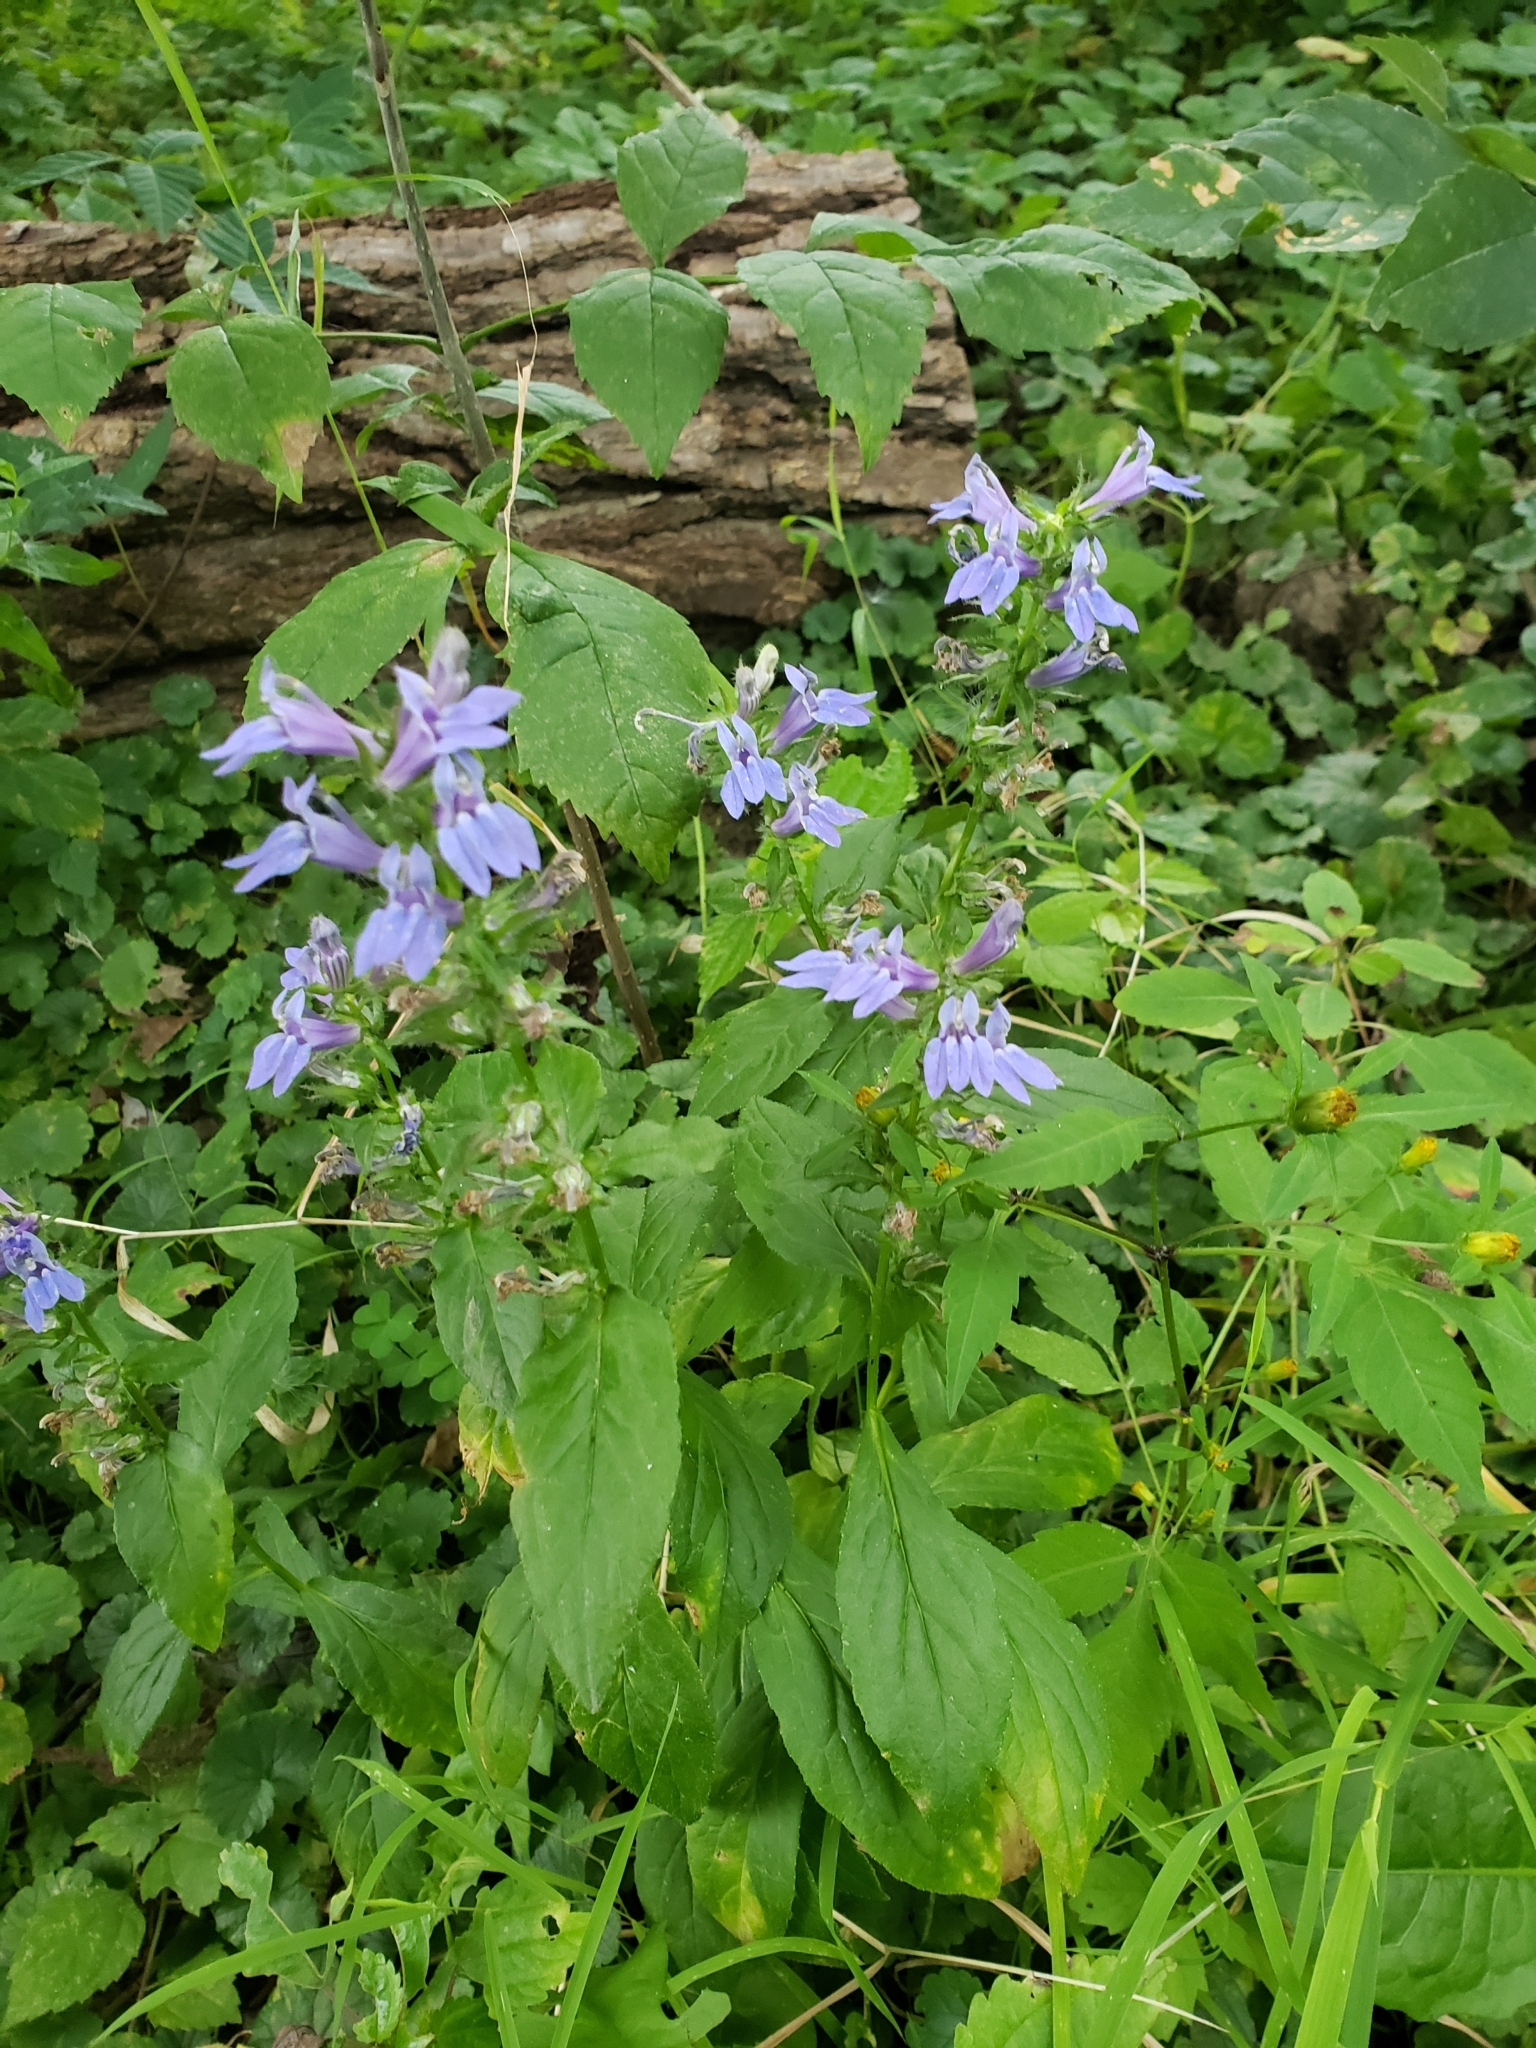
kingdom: Plantae
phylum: Tracheophyta
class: Magnoliopsida
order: Asterales
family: Campanulaceae
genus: Lobelia
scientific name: Lobelia siphilitica
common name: Great lobelia
